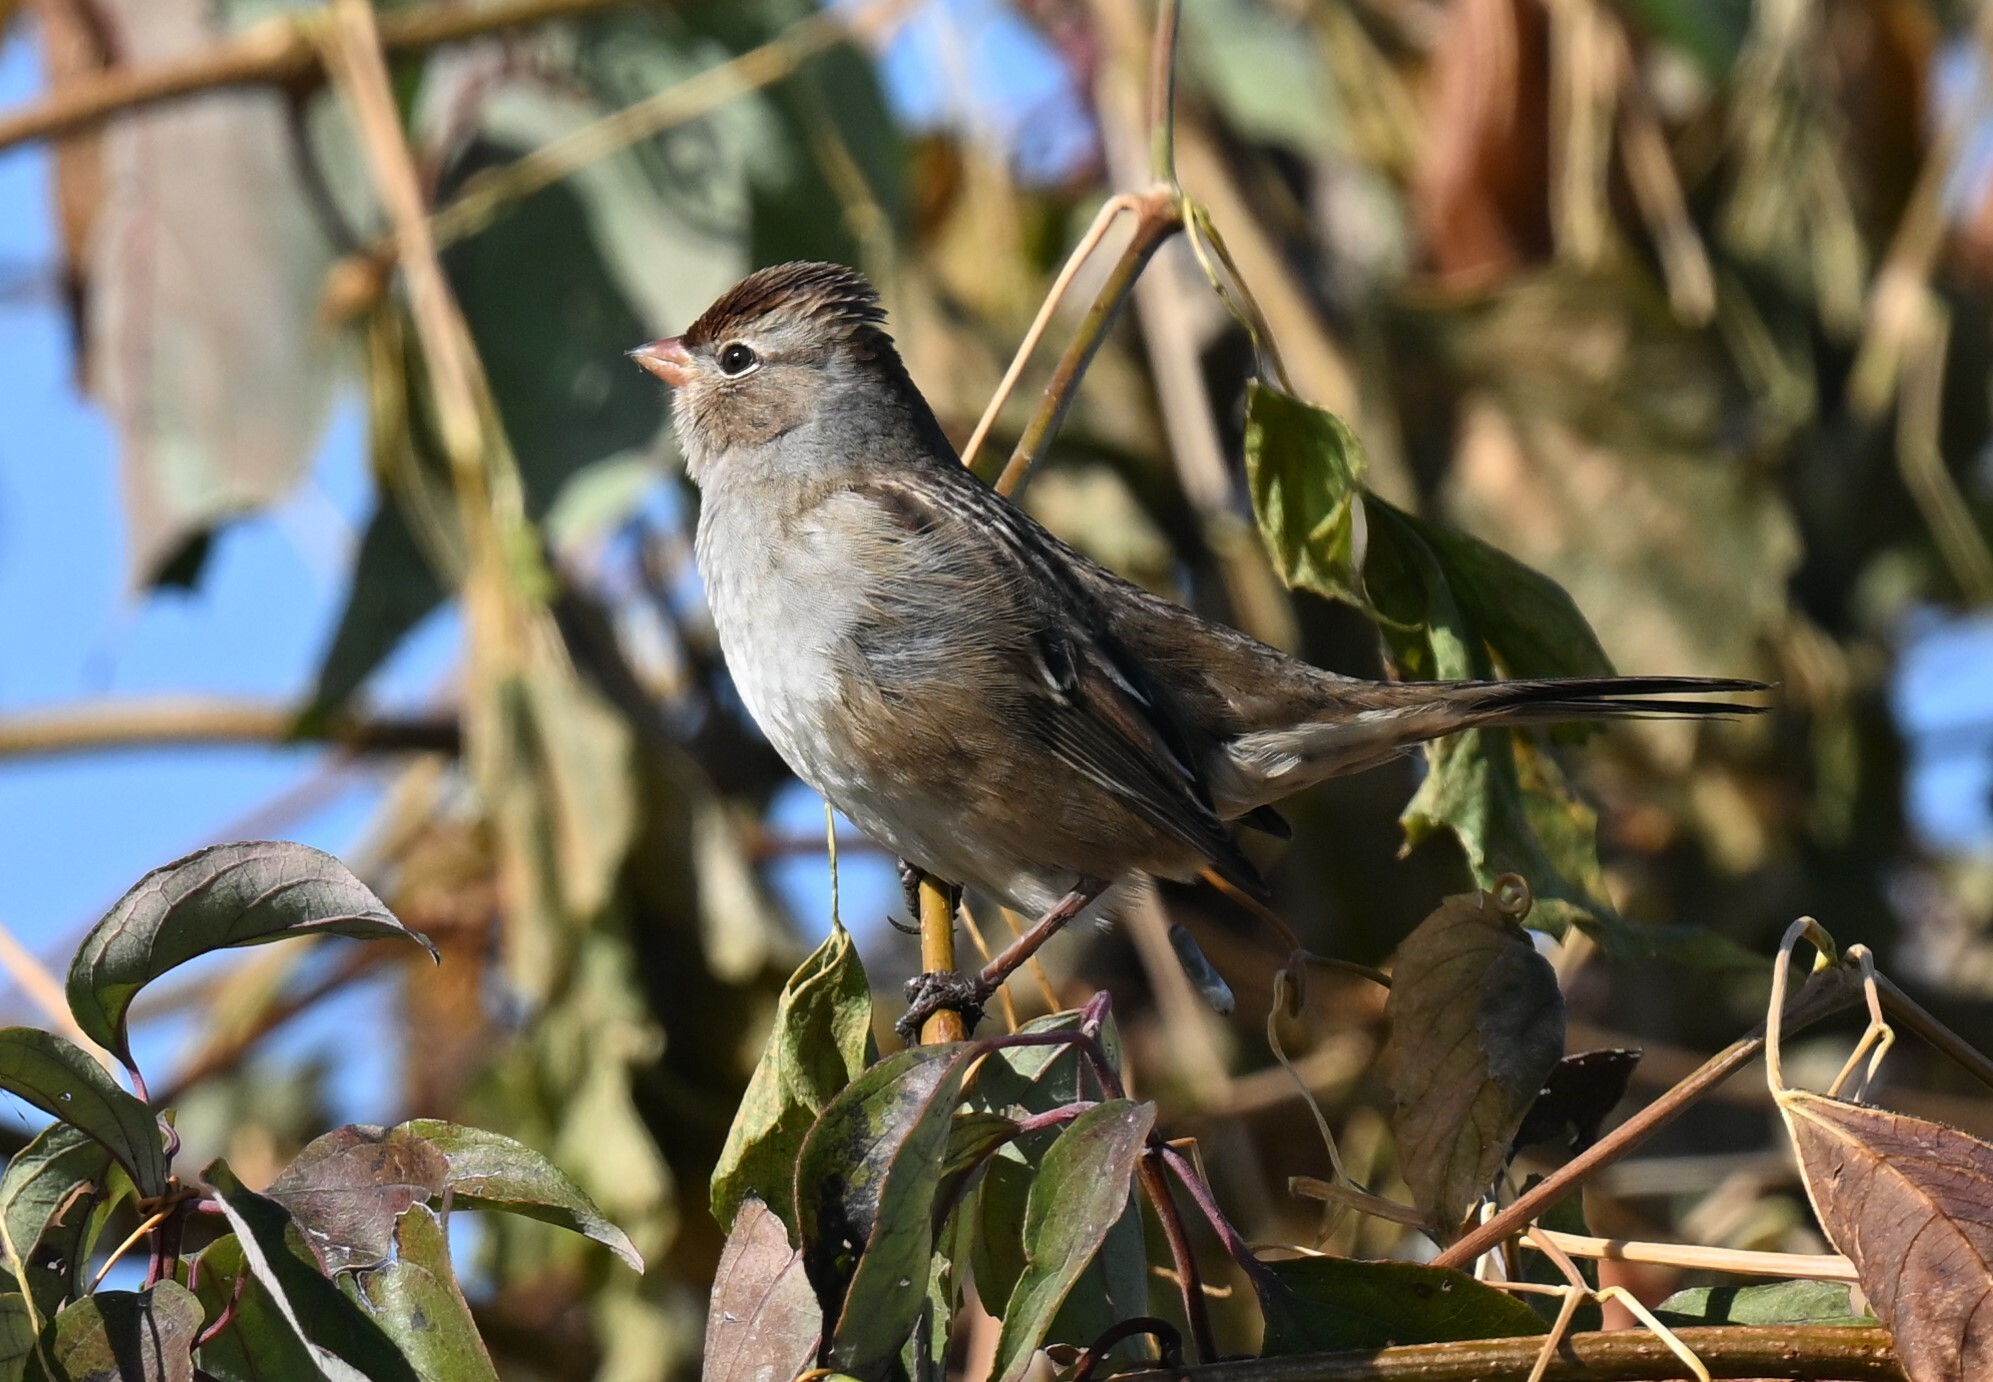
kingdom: Animalia
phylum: Chordata
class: Aves
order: Passeriformes
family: Passerellidae
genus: Zonotrichia
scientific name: Zonotrichia leucophrys
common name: White-crowned sparrow
